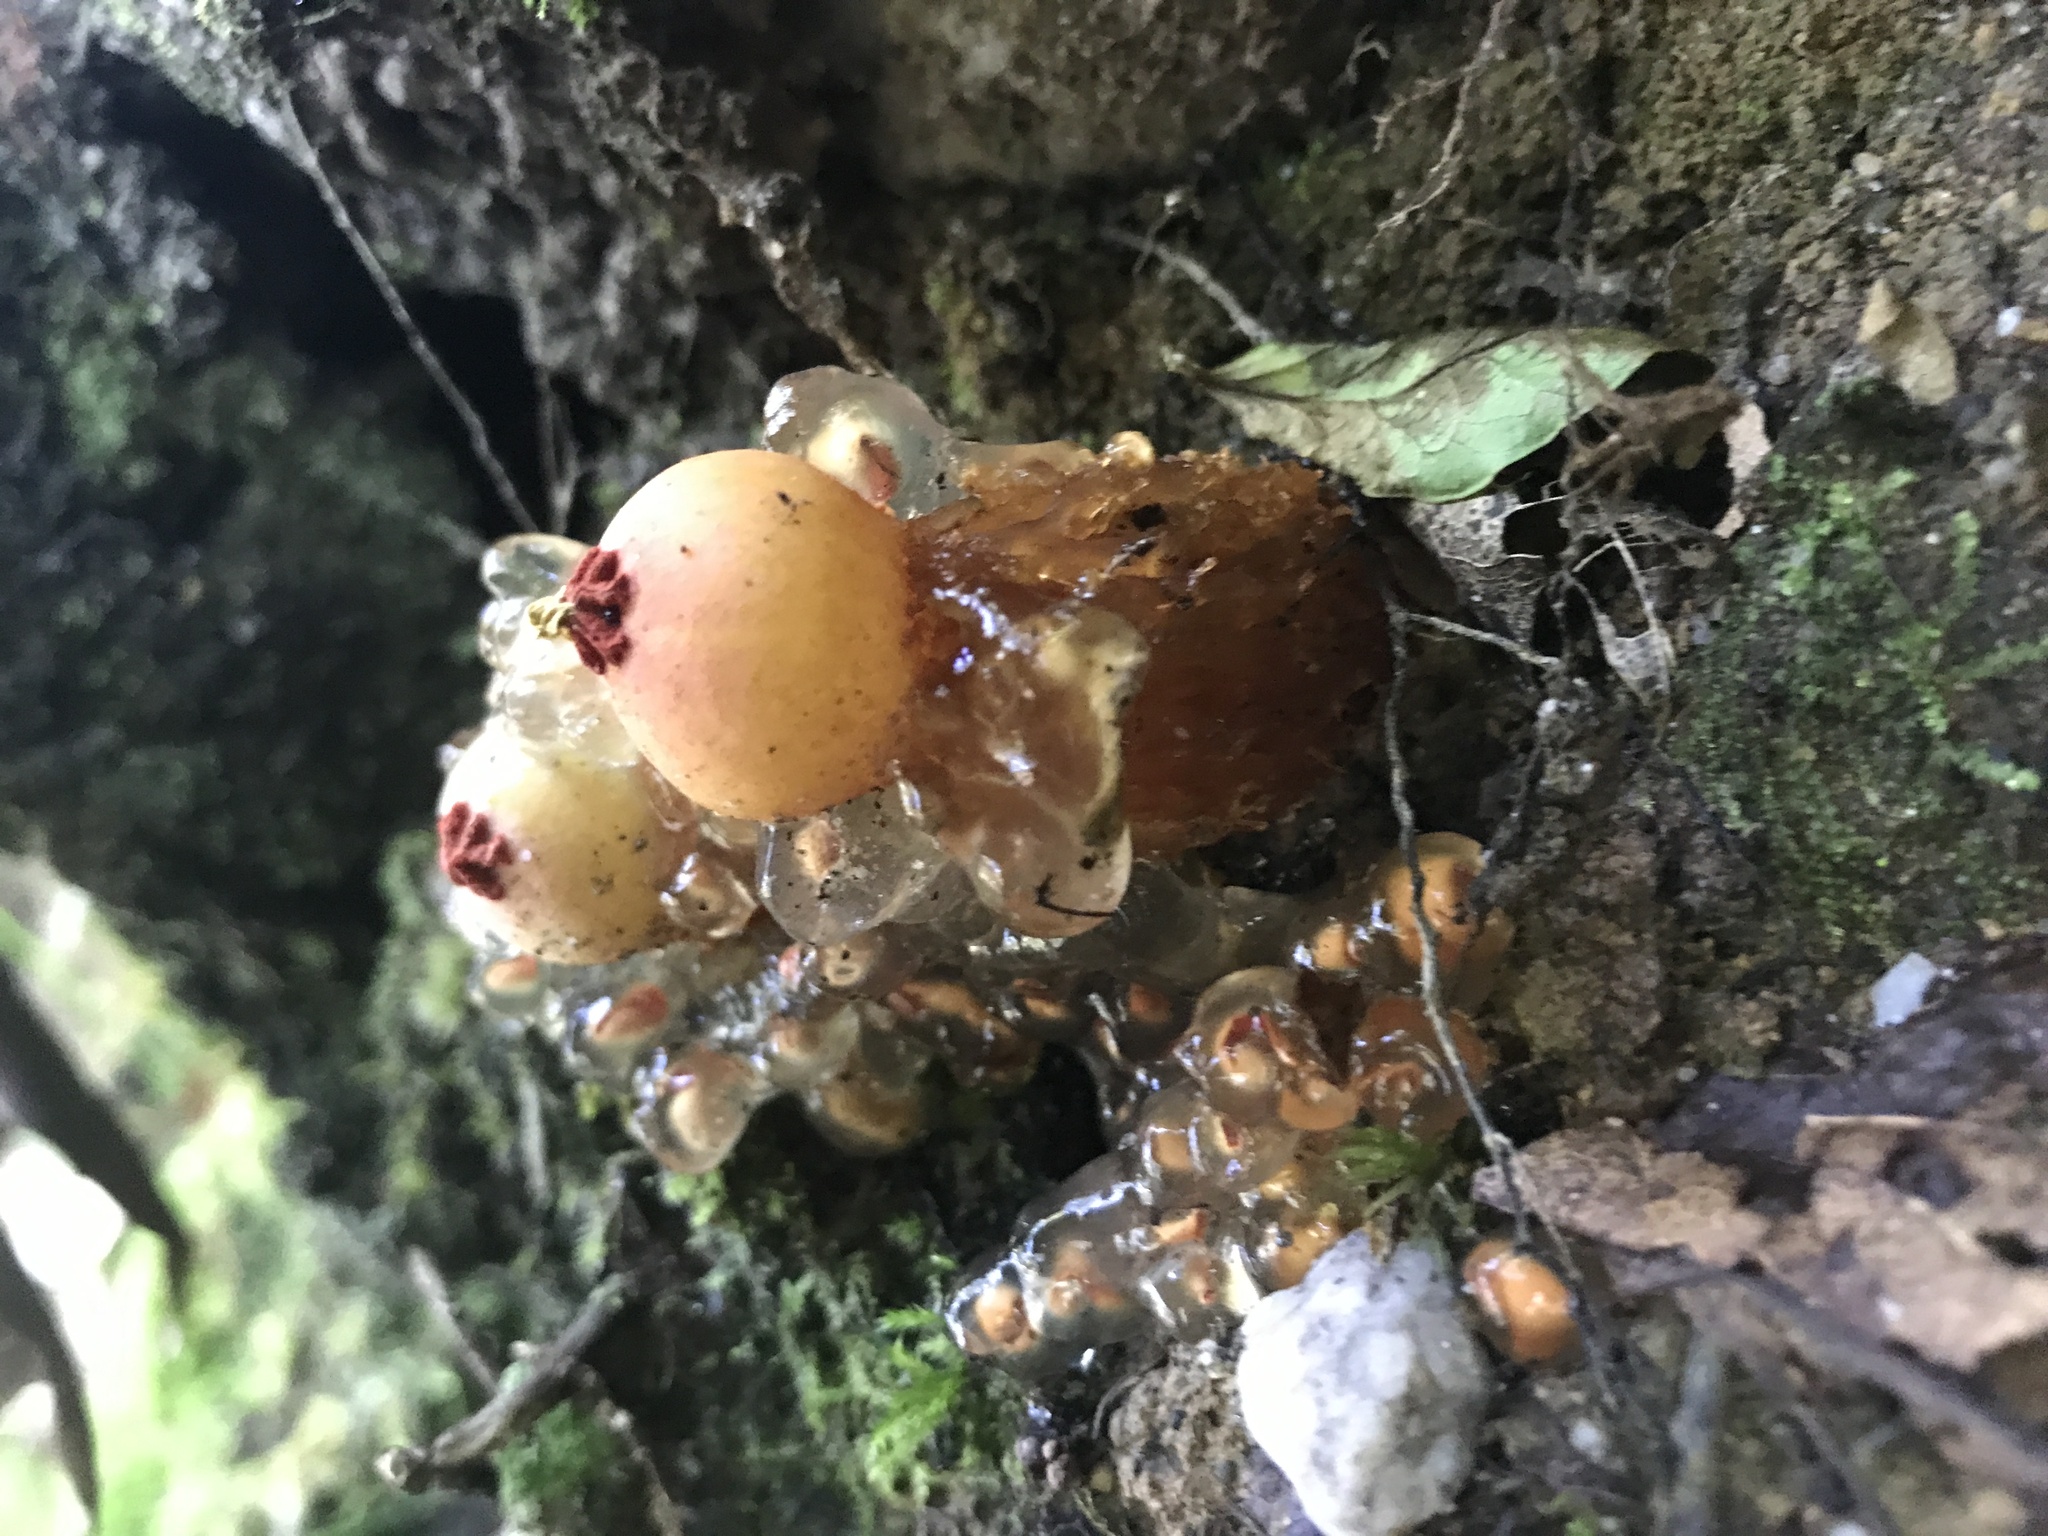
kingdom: Fungi
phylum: Basidiomycota
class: Agaricomycetes
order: Boletales
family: Calostomataceae
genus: Calostoma
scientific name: Calostoma cinnabarinum
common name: Stalked puffball-in-aspic
